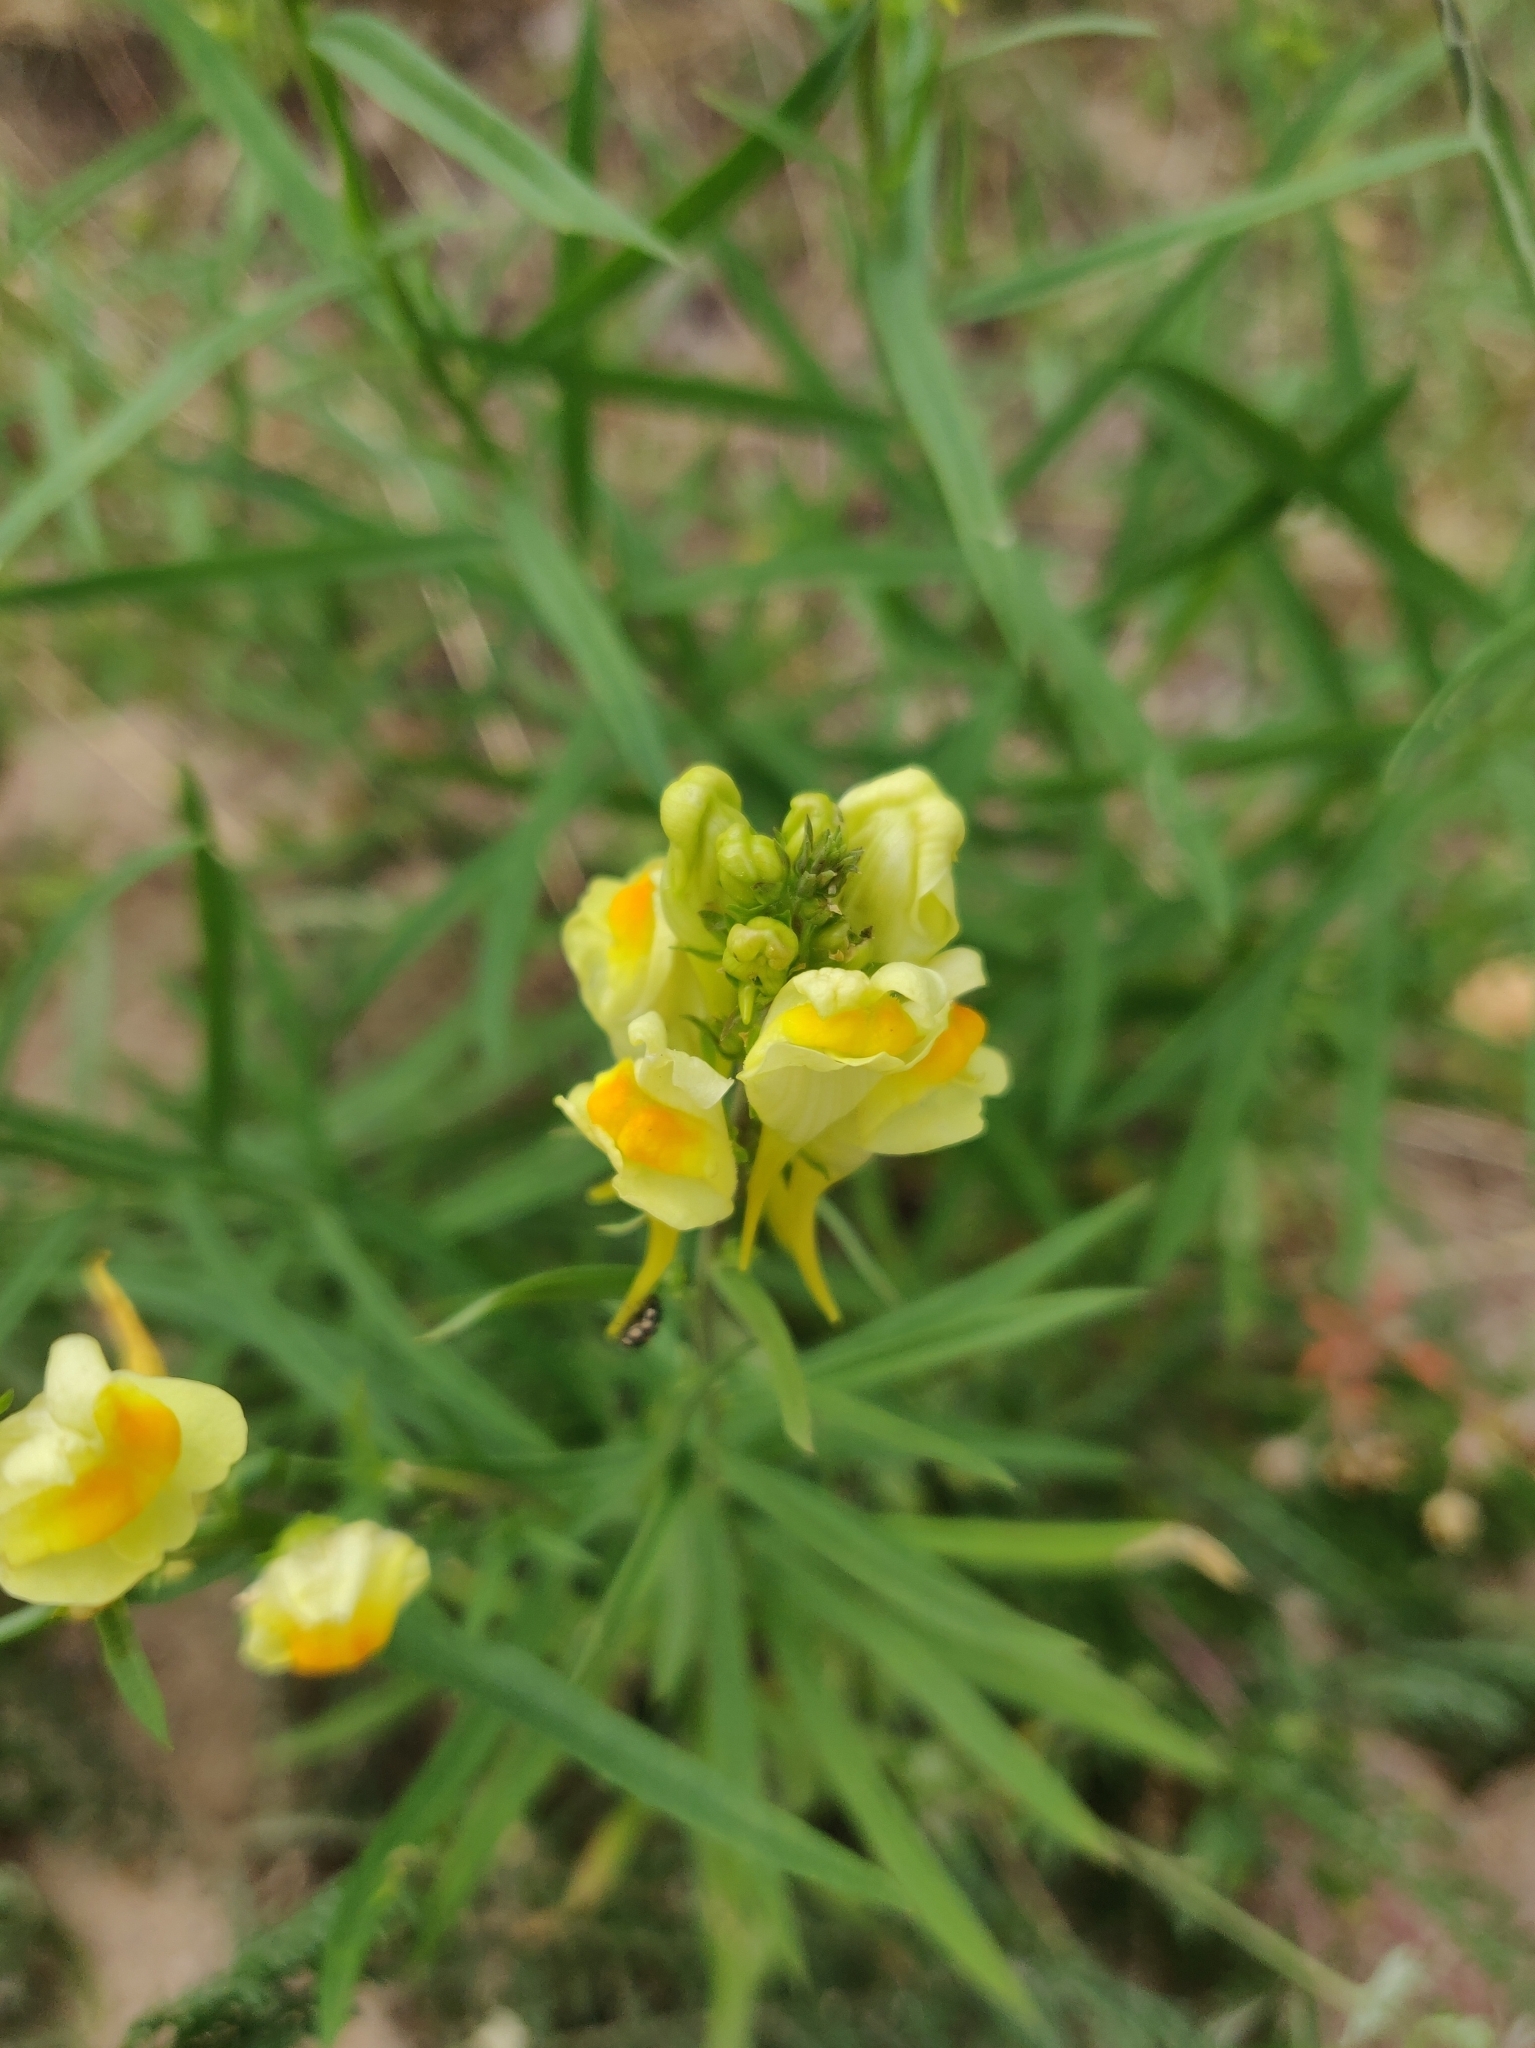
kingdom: Plantae
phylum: Tracheophyta
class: Magnoliopsida
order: Lamiales
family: Plantaginaceae
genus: Linaria
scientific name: Linaria vulgaris
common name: Butter and eggs
